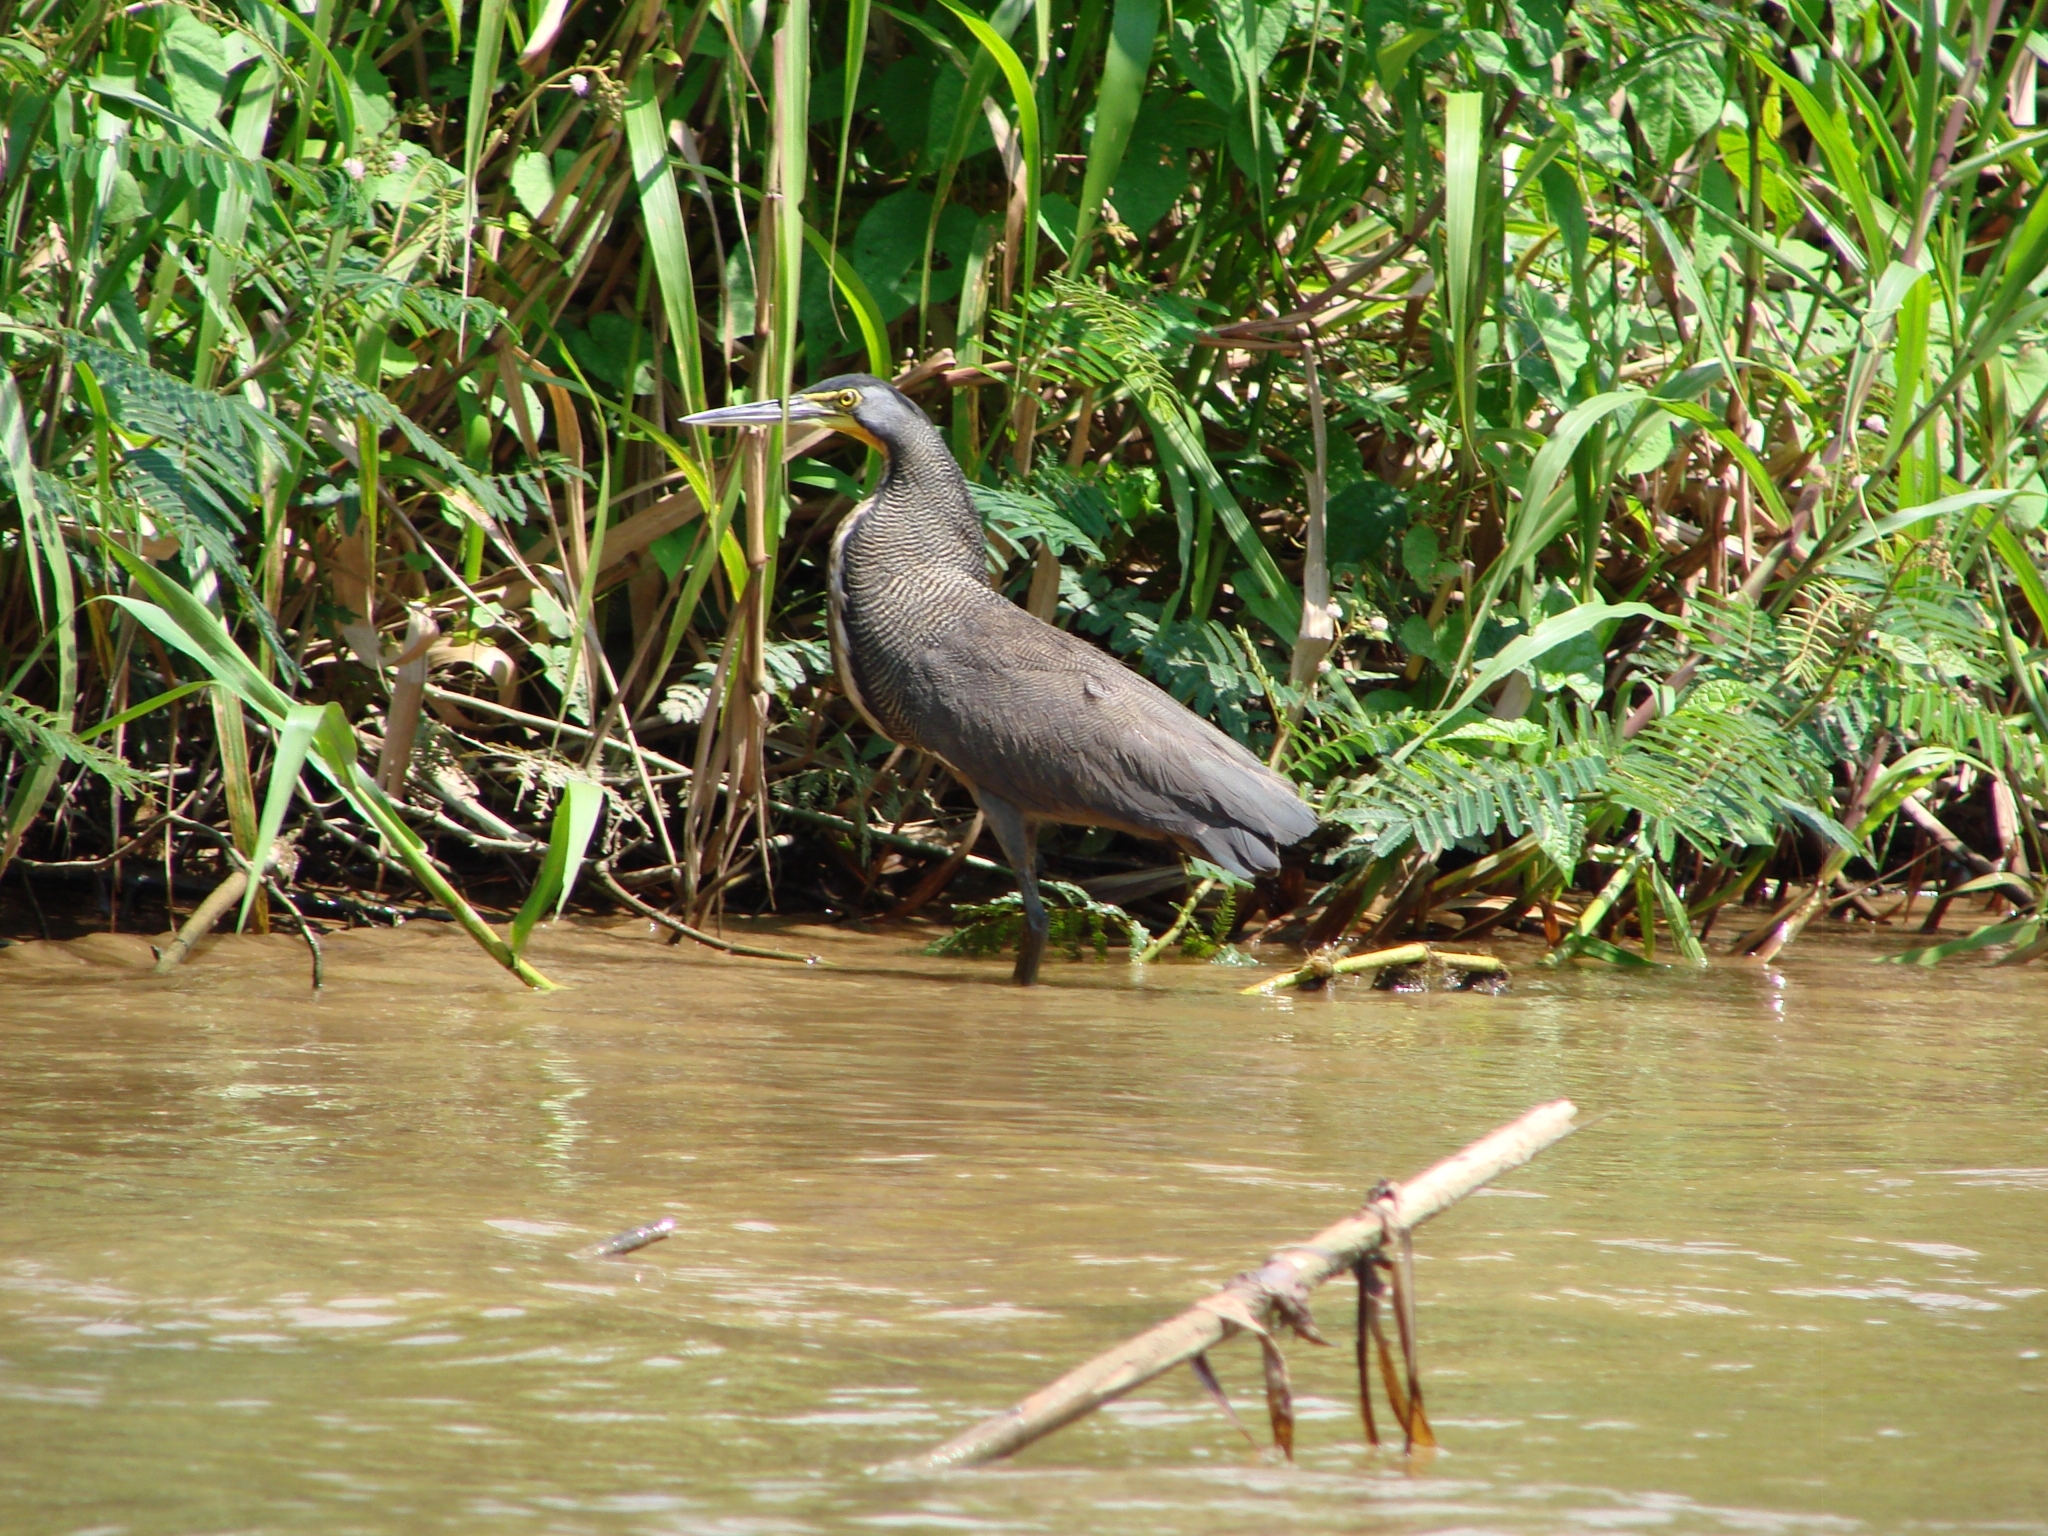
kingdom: Animalia
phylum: Chordata
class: Aves
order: Pelecaniformes
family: Ardeidae
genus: Tigrisoma
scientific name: Tigrisoma mexicanum
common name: Bare-throated tiger-heron
